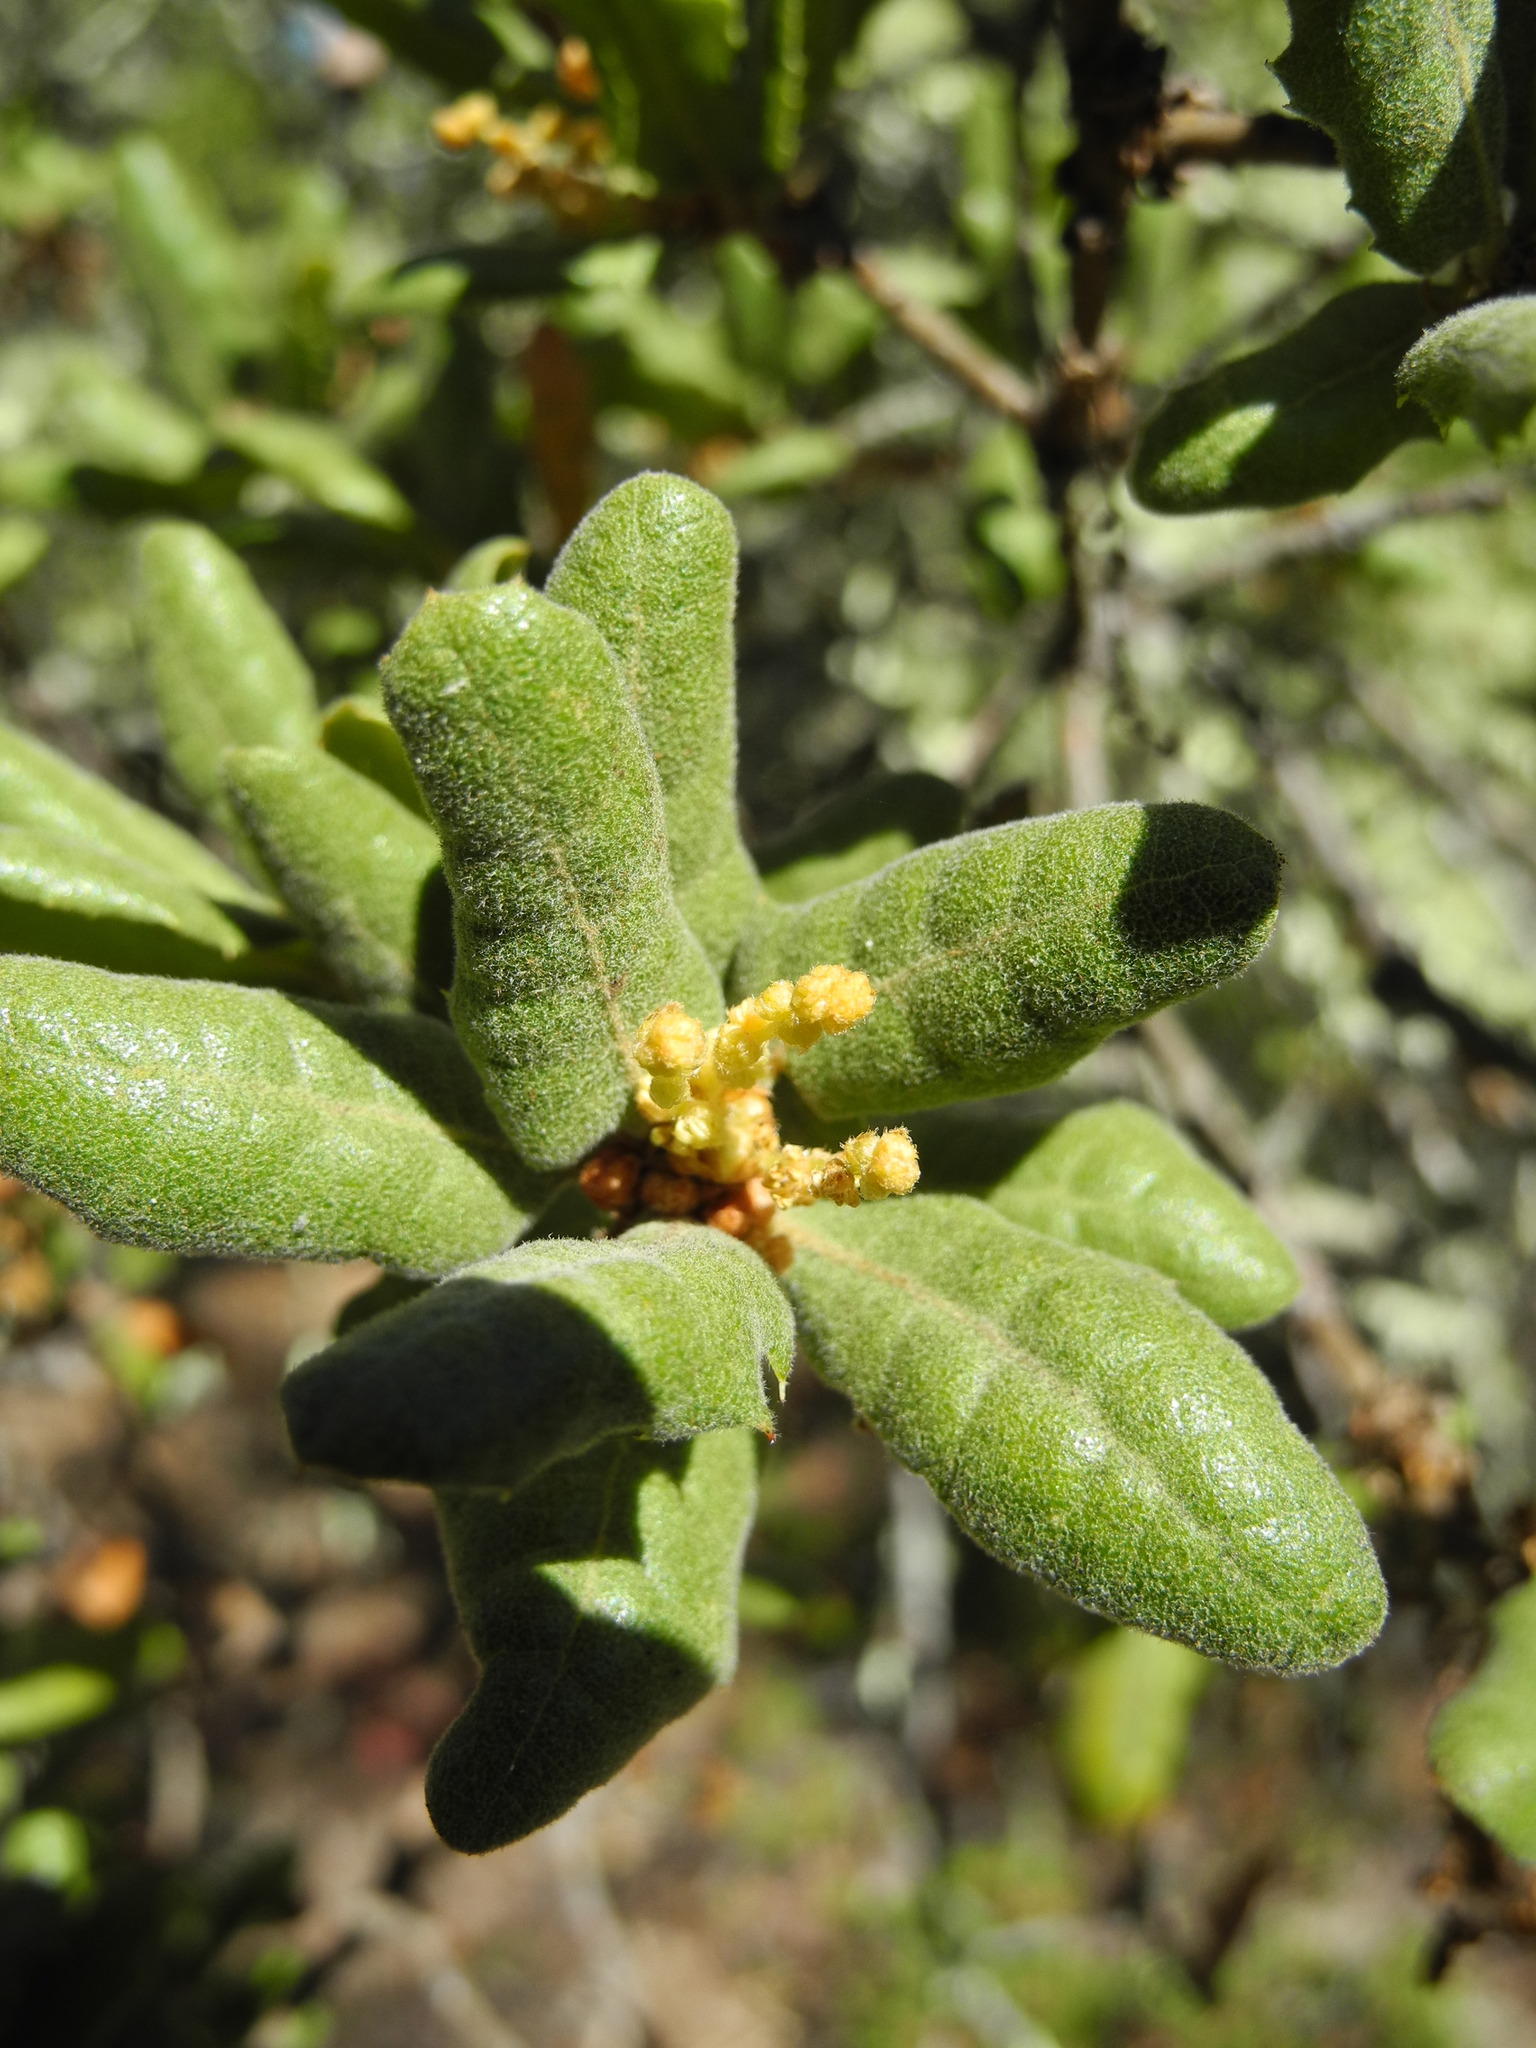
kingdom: Plantae
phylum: Tracheophyta
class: Magnoliopsida
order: Fagales
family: Fagaceae
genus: Quercus
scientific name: Quercus durata
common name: Leather oak
